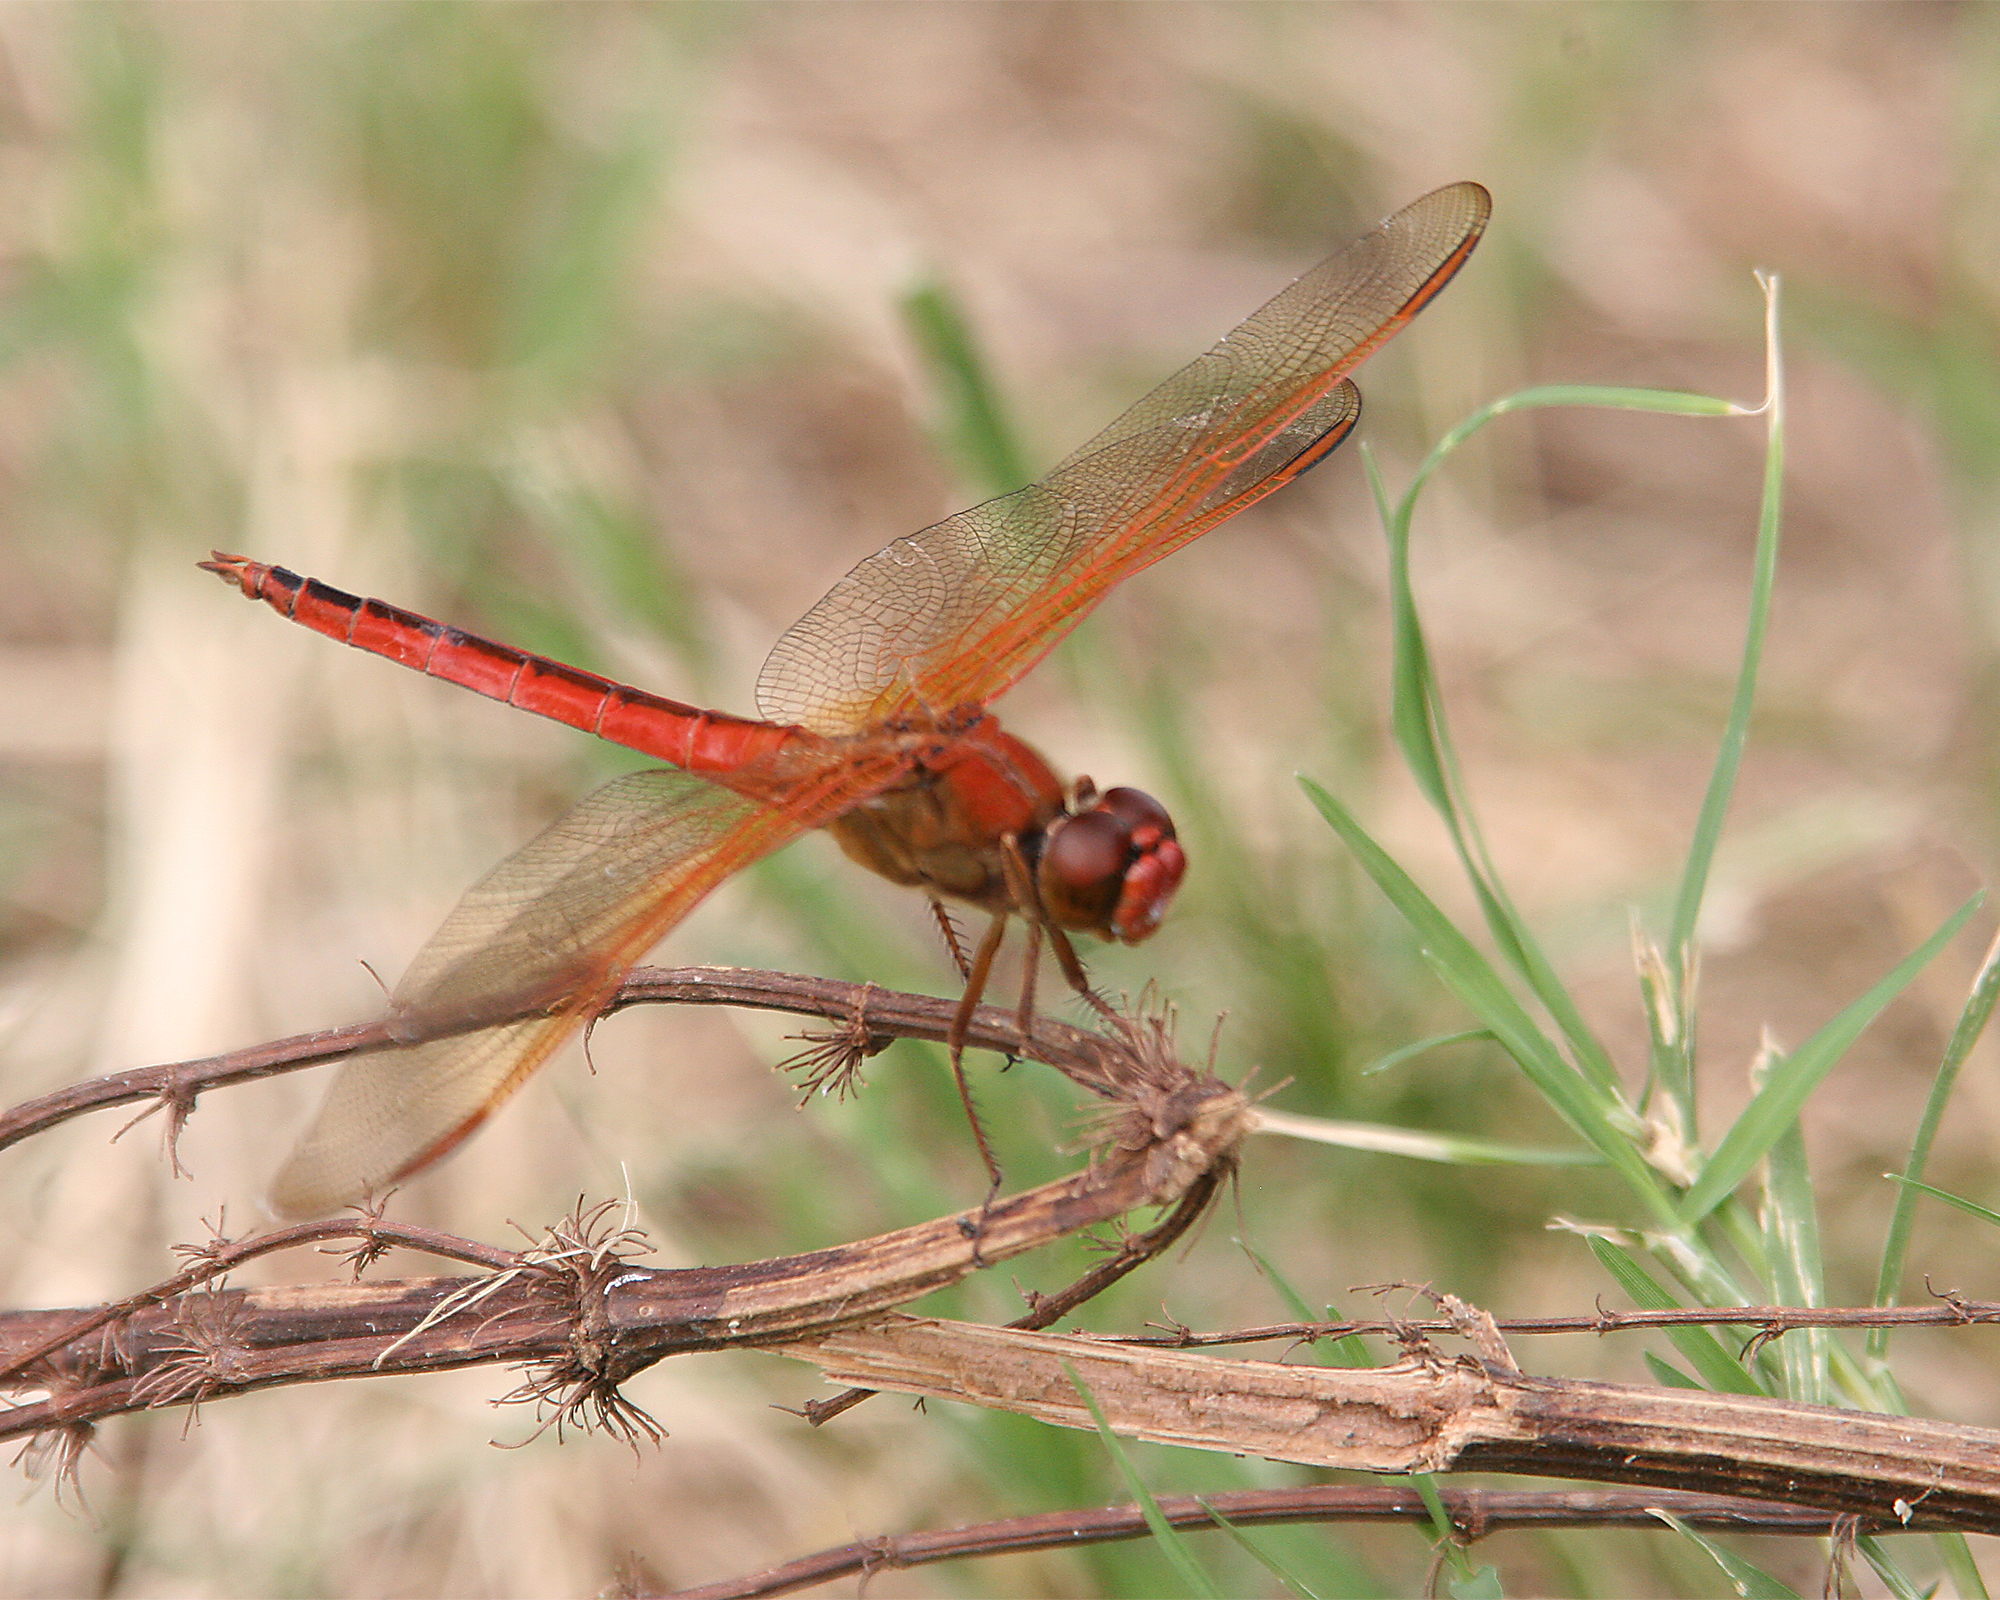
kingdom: Animalia
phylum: Arthropoda
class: Insecta
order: Odonata
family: Libellulidae
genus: Libellula
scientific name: Libellula needhami
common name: Needham's skimmer
